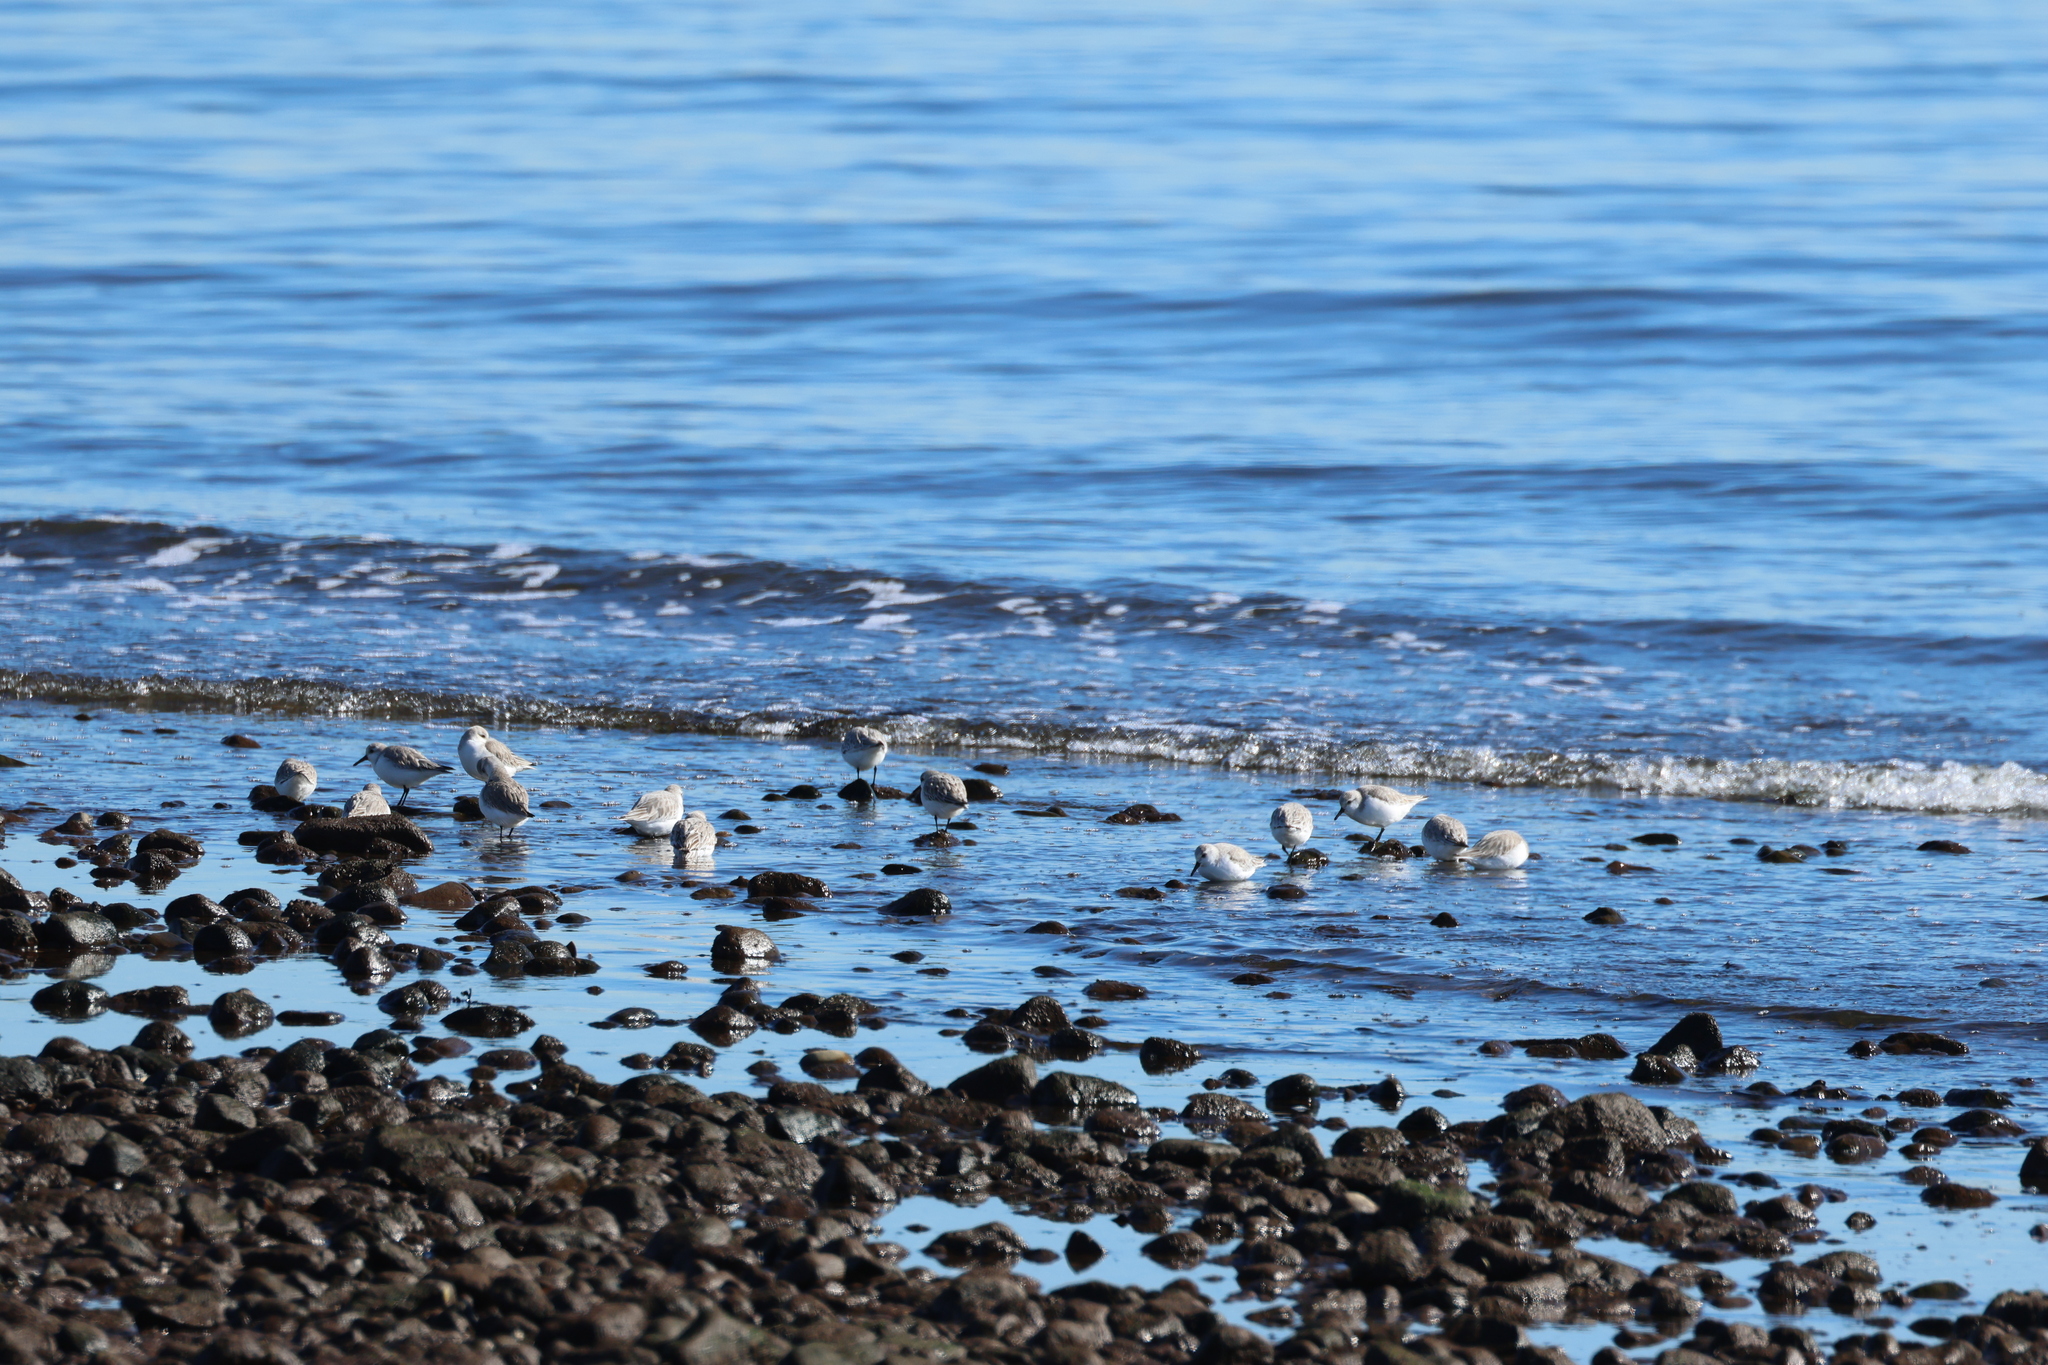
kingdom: Animalia
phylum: Chordata
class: Aves
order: Charadriiformes
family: Scolopacidae
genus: Calidris
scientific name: Calidris alba
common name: Sanderling
